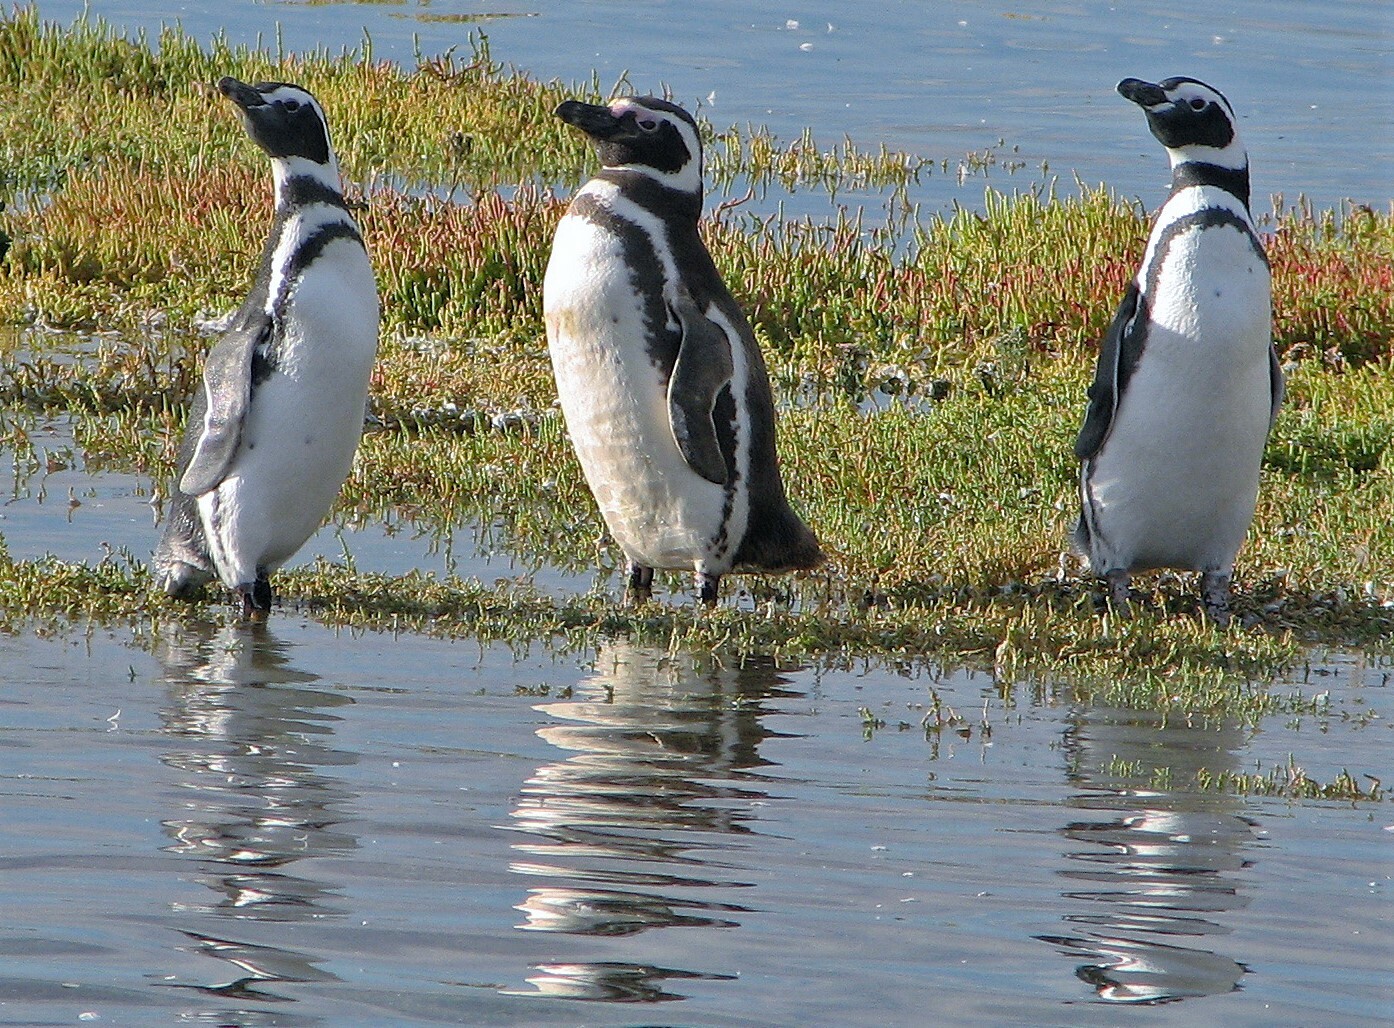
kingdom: Animalia
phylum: Chordata
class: Aves
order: Sphenisciformes
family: Spheniscidae
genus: Spheniscus
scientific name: Spheniscus magellanicus
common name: Magellanic penguin
